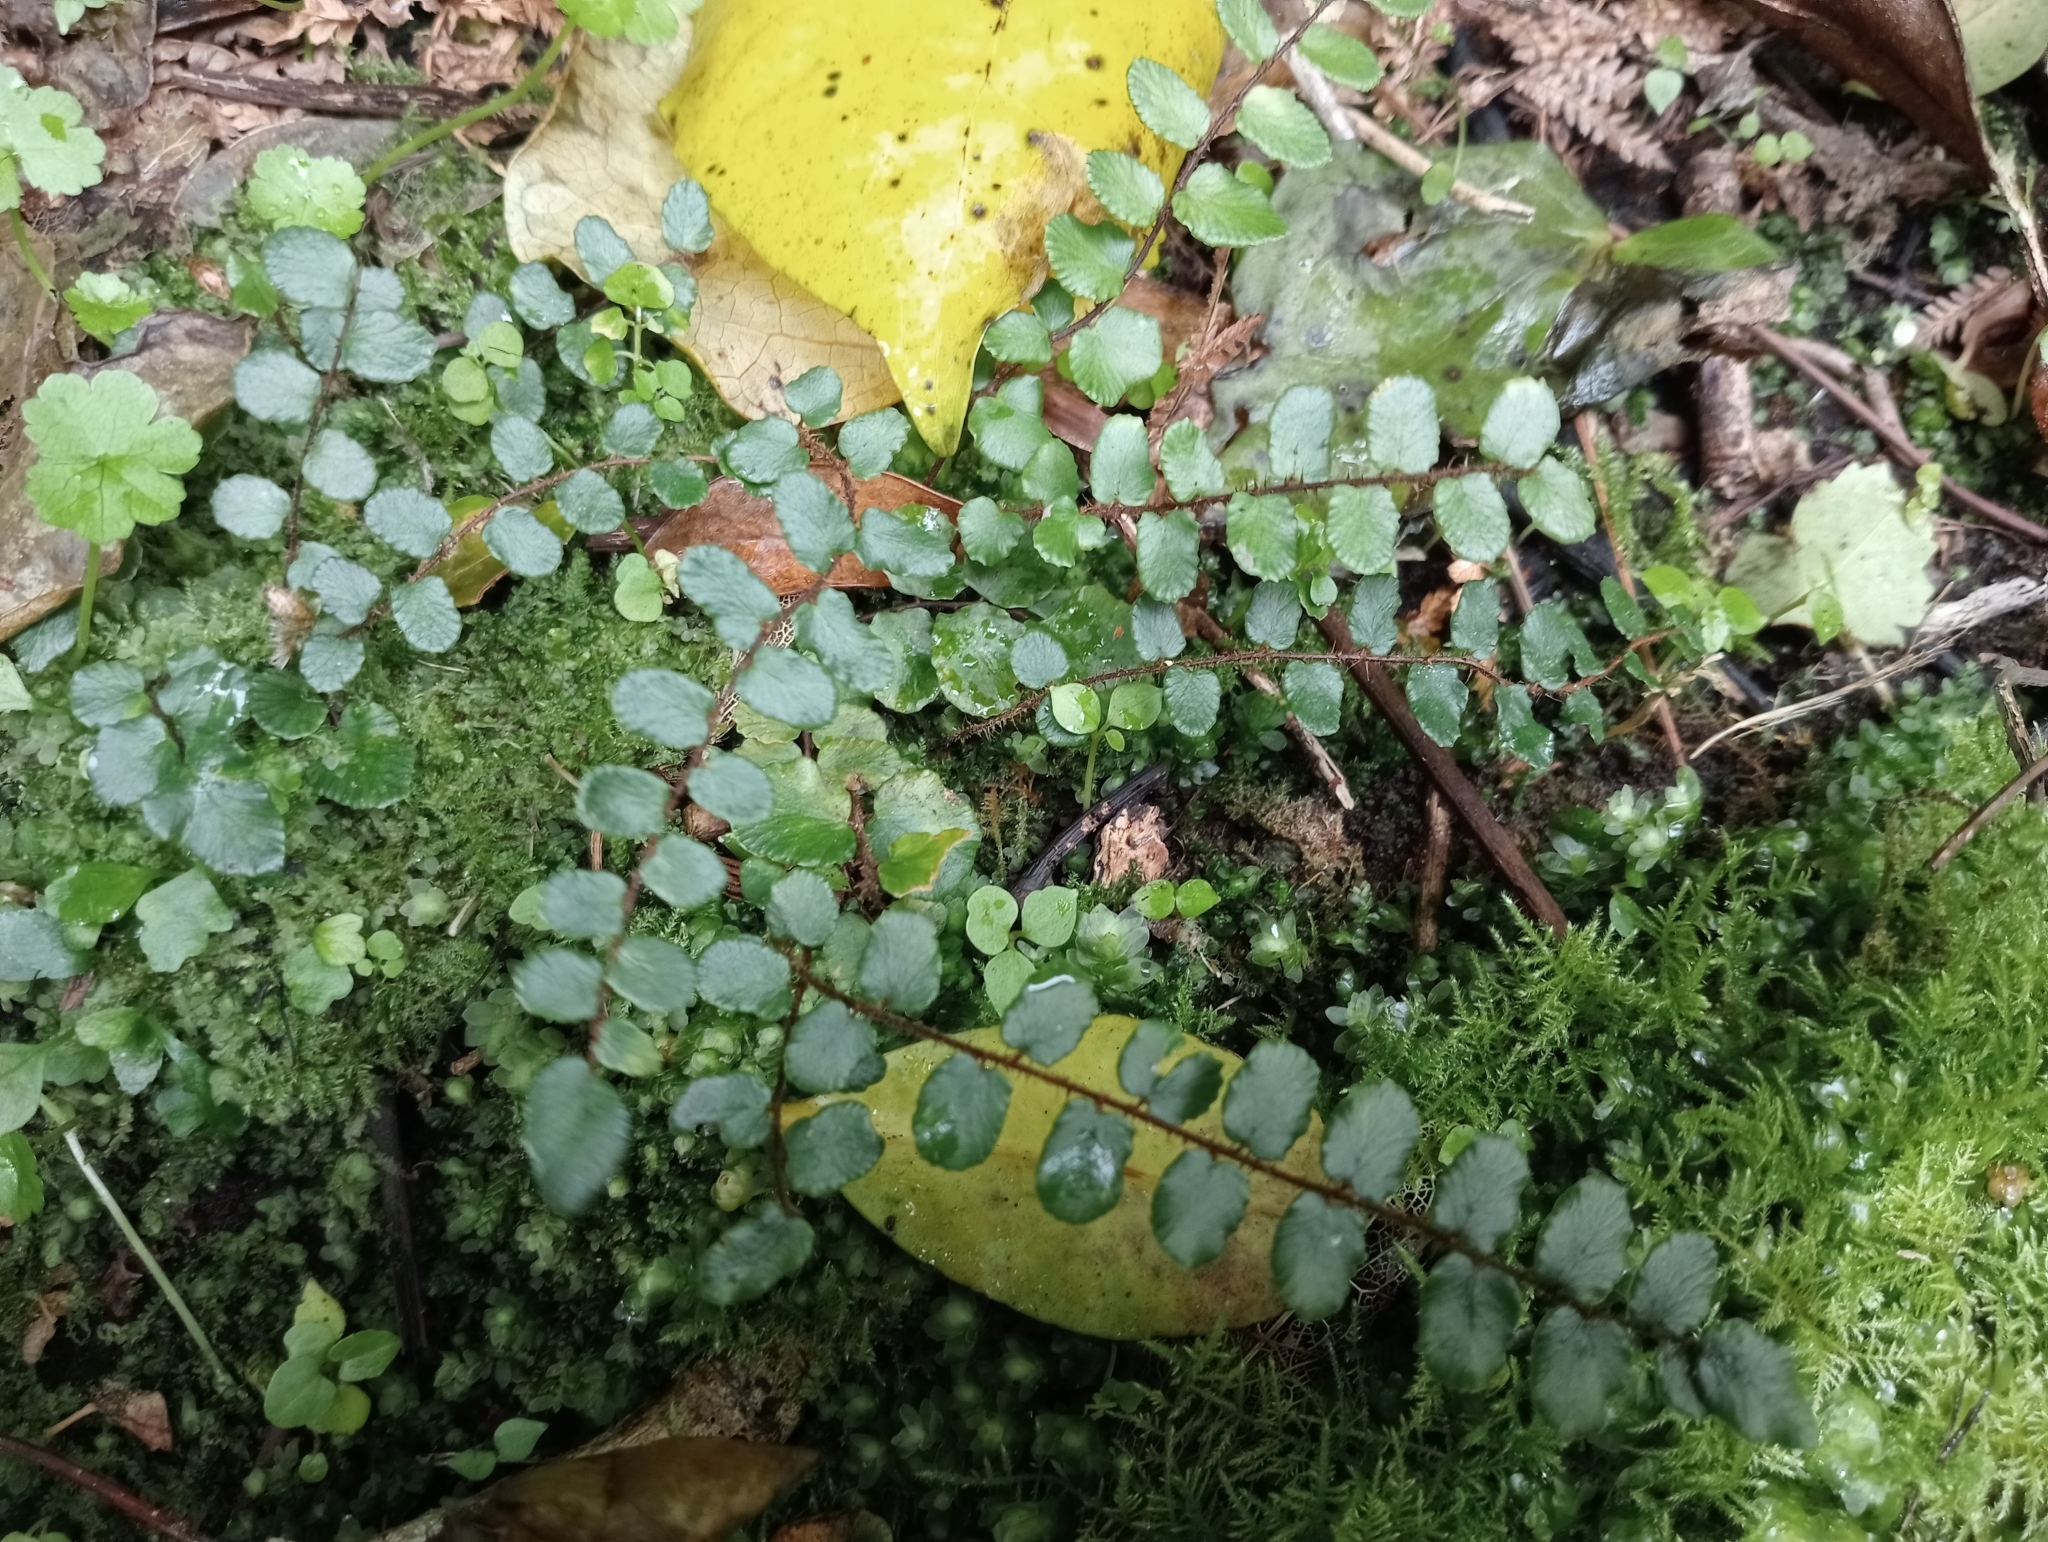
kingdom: Plantae
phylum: Tracheophyta
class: Polypodiopsida
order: Polypodiales
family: Pteridaceae
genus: Pellaea
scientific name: Pellaea rotundifolia
